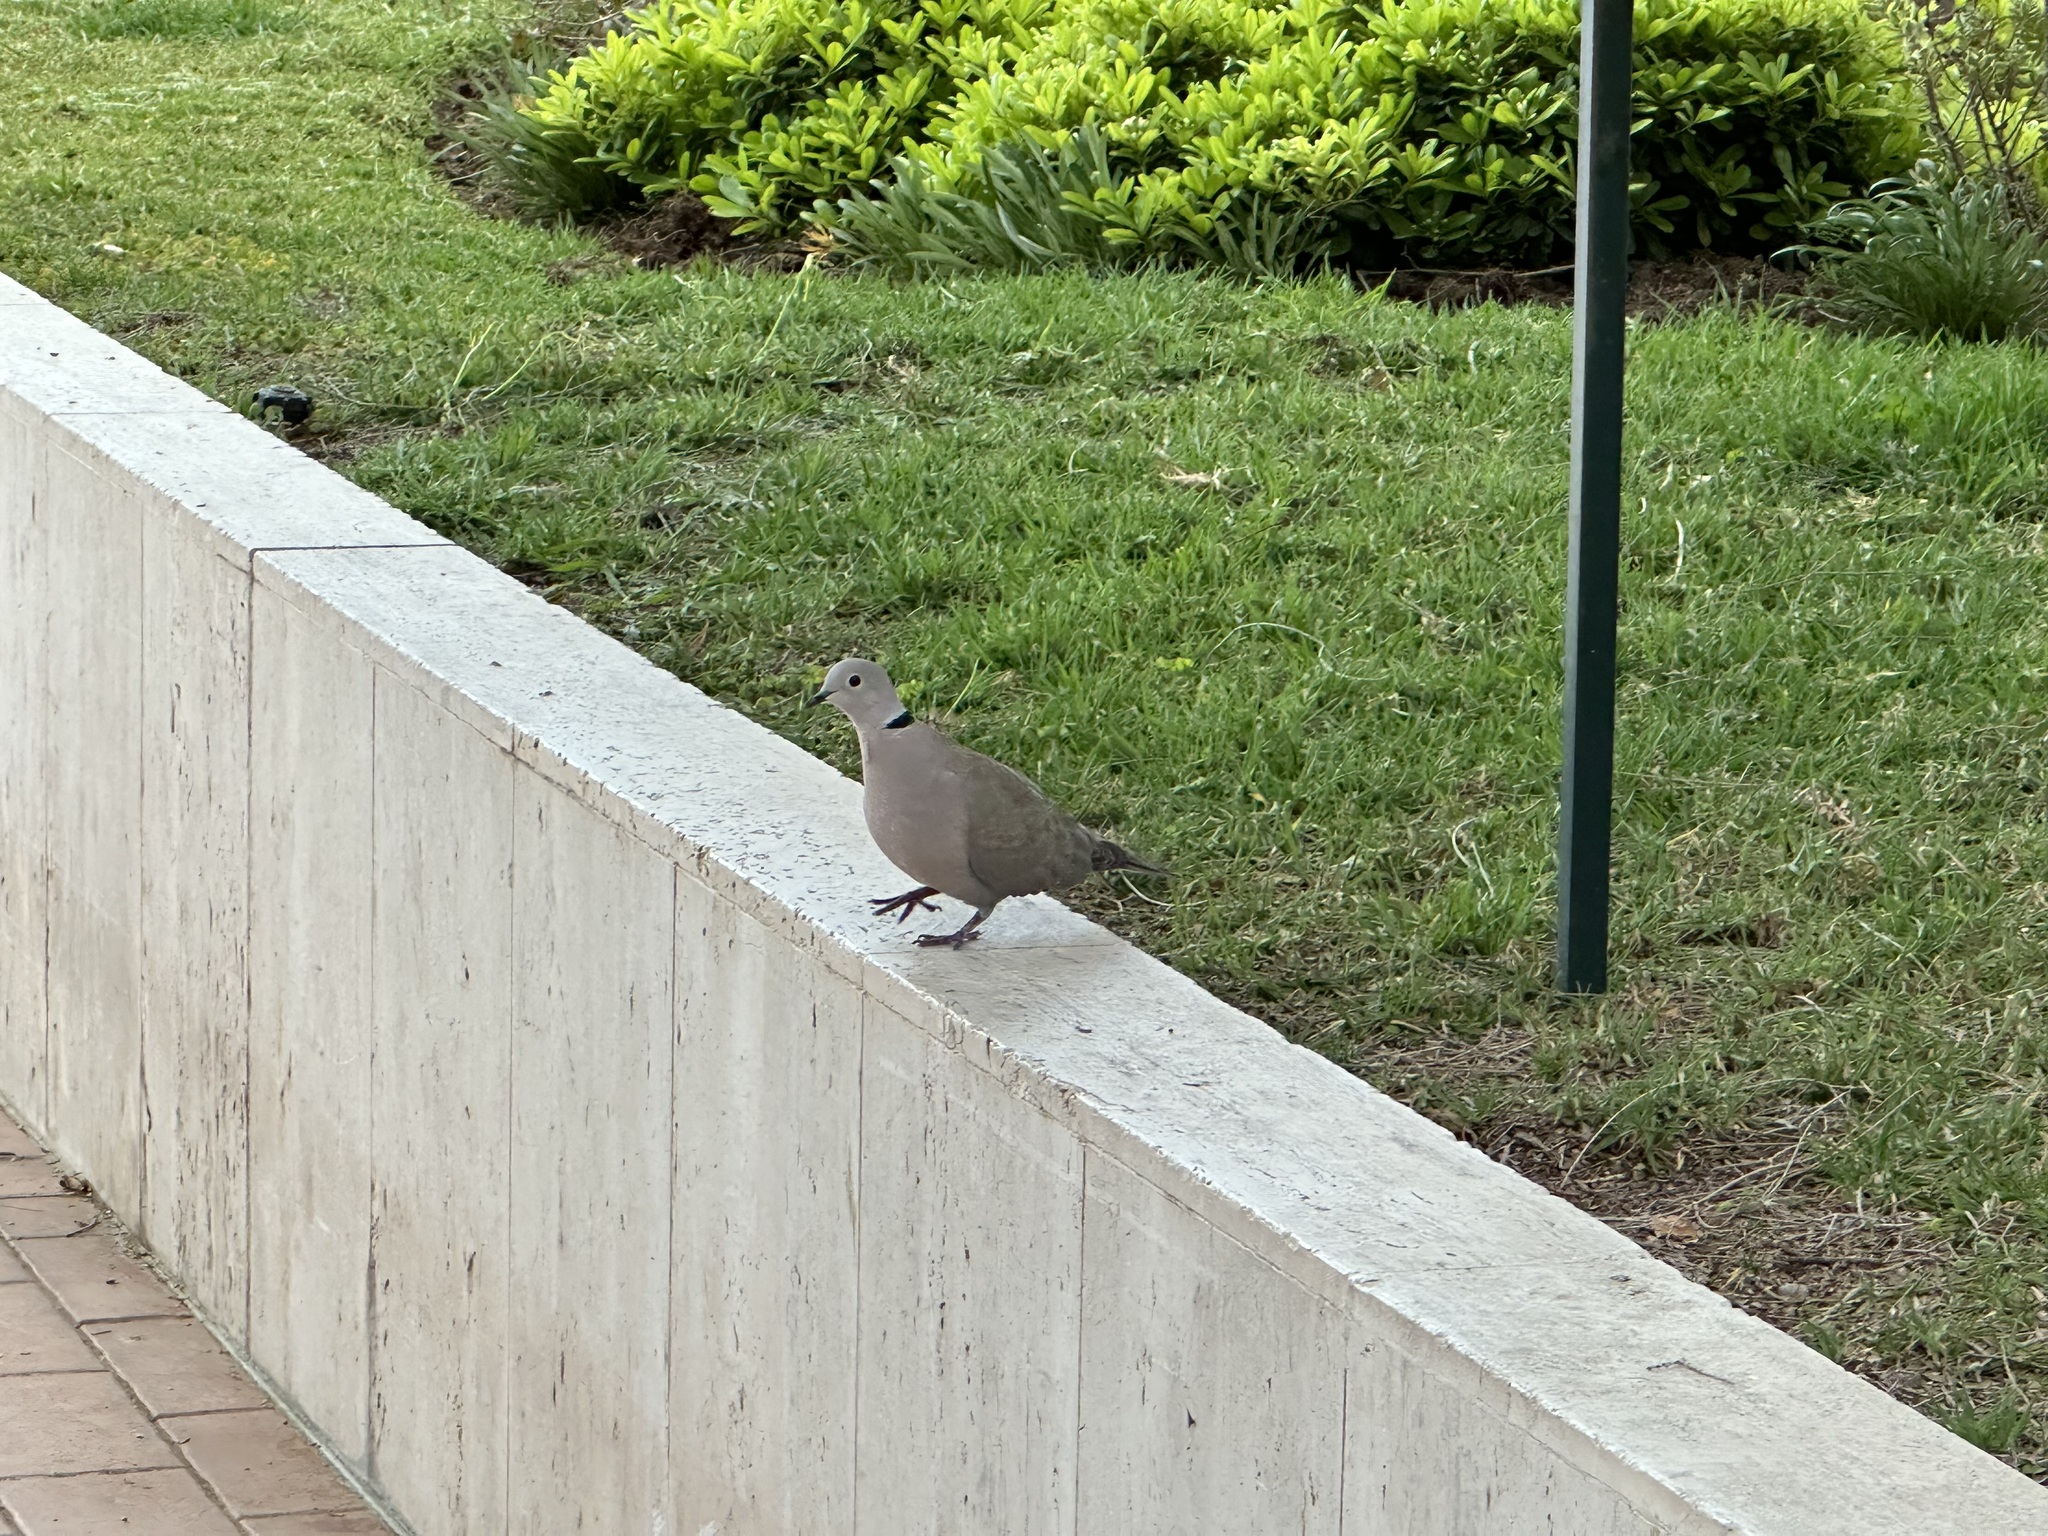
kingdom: Animalia
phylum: Chordata
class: Aves
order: Columbiformes
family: Columbidae
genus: Streptopelia
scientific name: Streptopelia decaocto
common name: Eurasian collared dove
